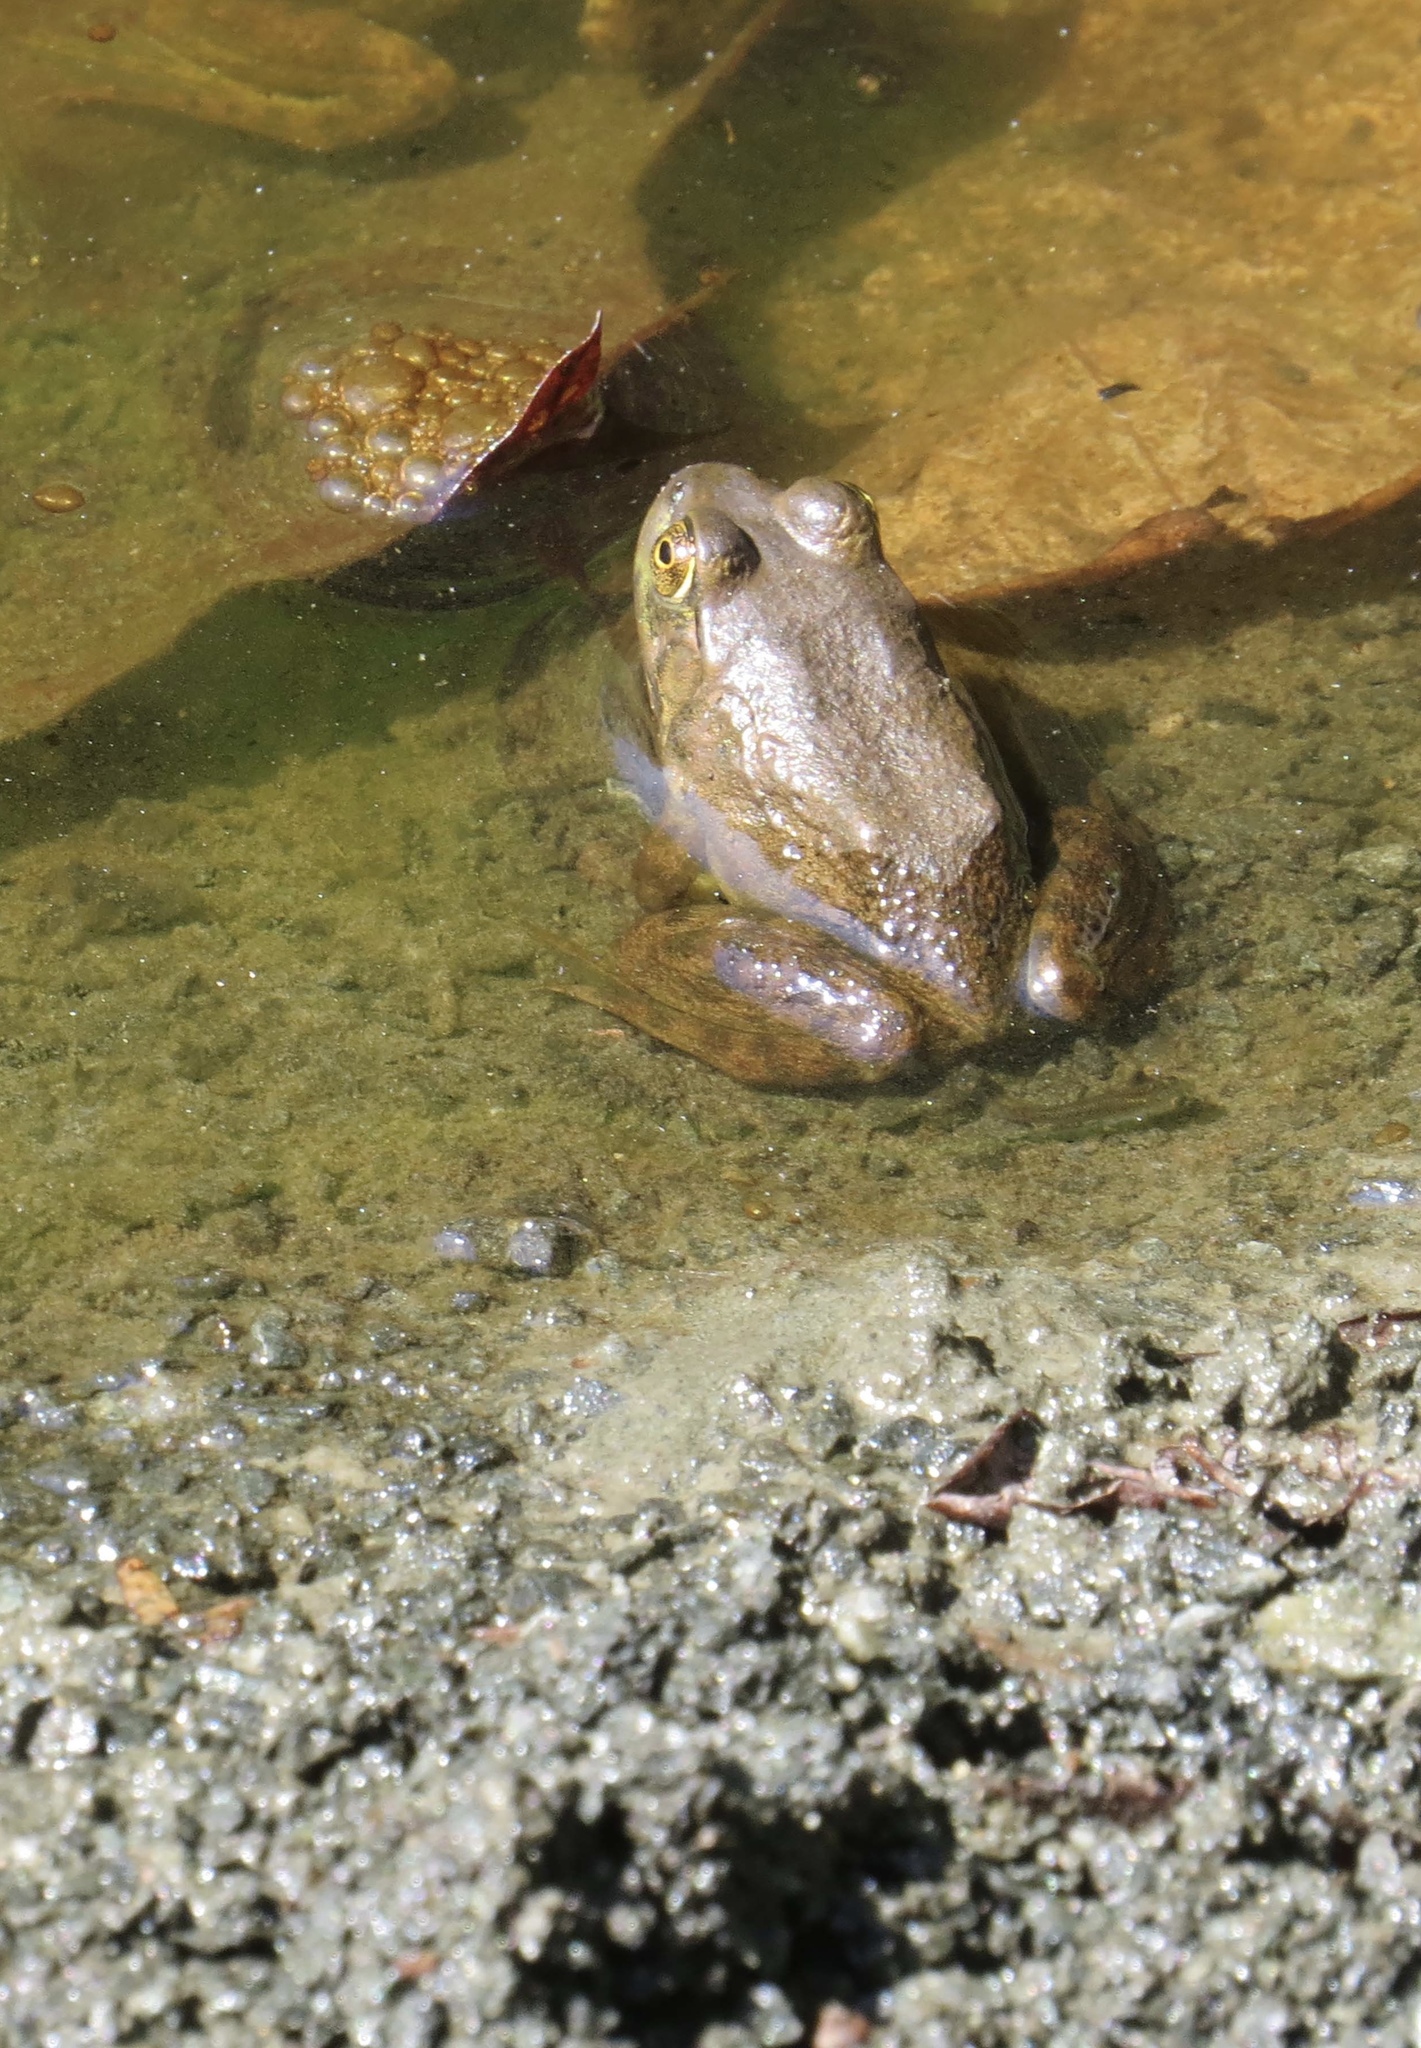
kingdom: Animalia
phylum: Chordata
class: Amphibia
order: Anura
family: Ranidae
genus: Lithobates
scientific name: Lithobates catesbeianus
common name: American bullfrog
